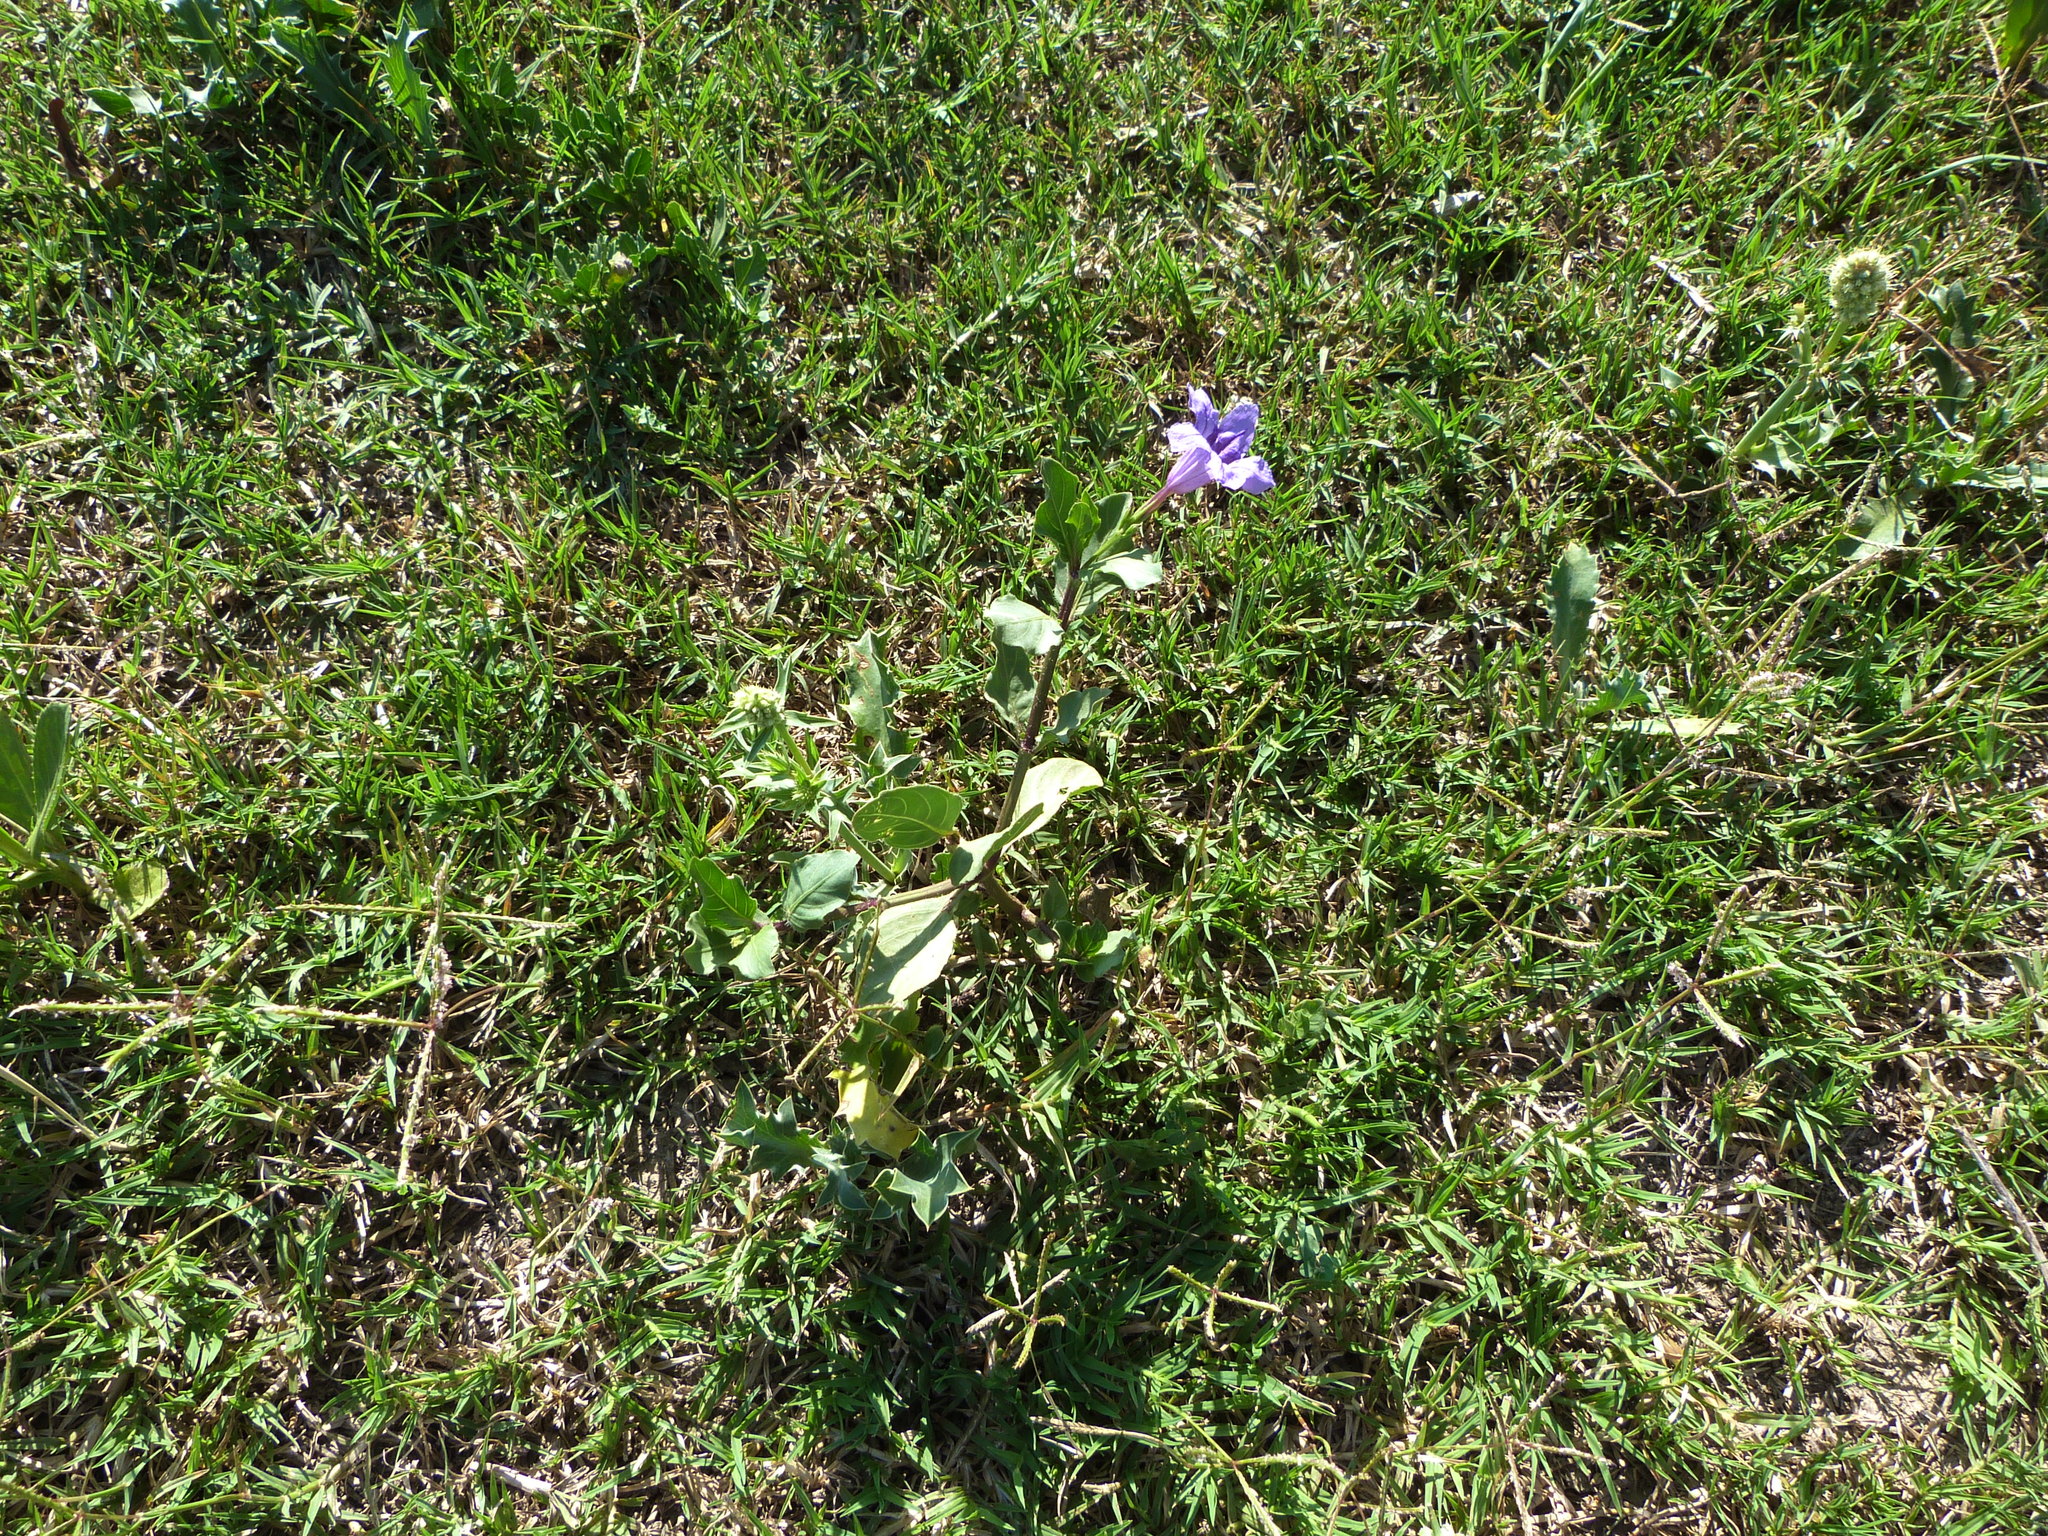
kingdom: Plantae
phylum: Tracheophyta
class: Magnoliopsida
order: Lamiales
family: Acanthaceae
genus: Ruellia
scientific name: Ruellia ciliatiflora
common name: Hairyflower wild petunia
